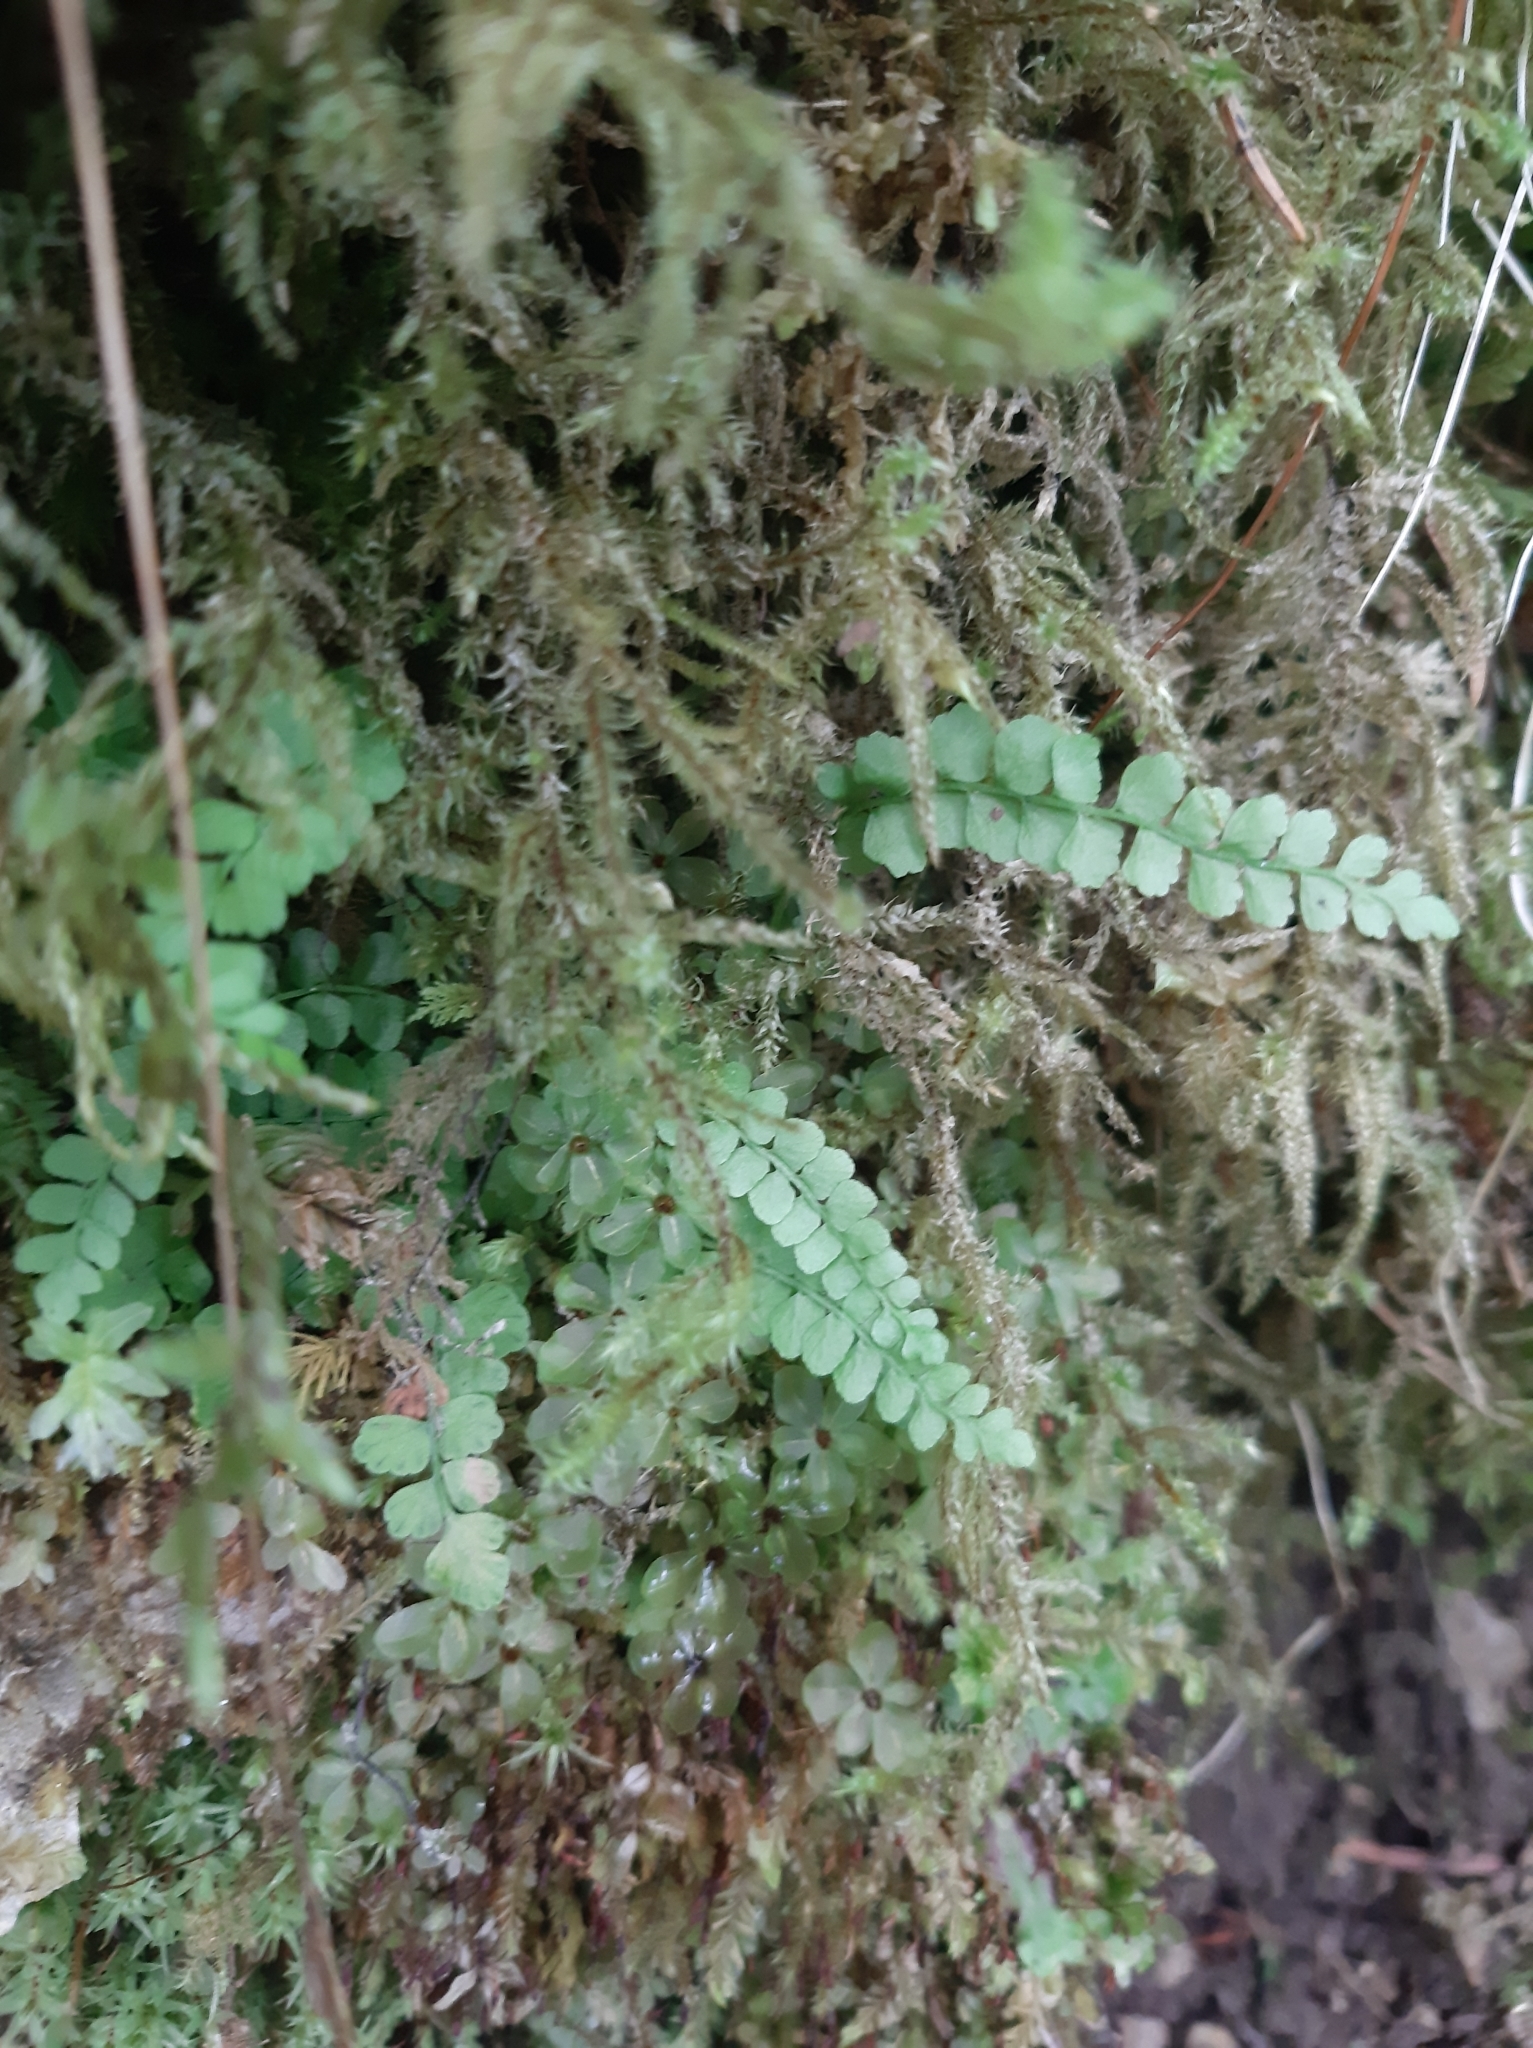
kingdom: Plantae
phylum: Tracheophyta
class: Polypodiopsida
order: Polypodiales
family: Aspleniaceae
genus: Asplenium
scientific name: Asplenium viride
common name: Green spleenwort
